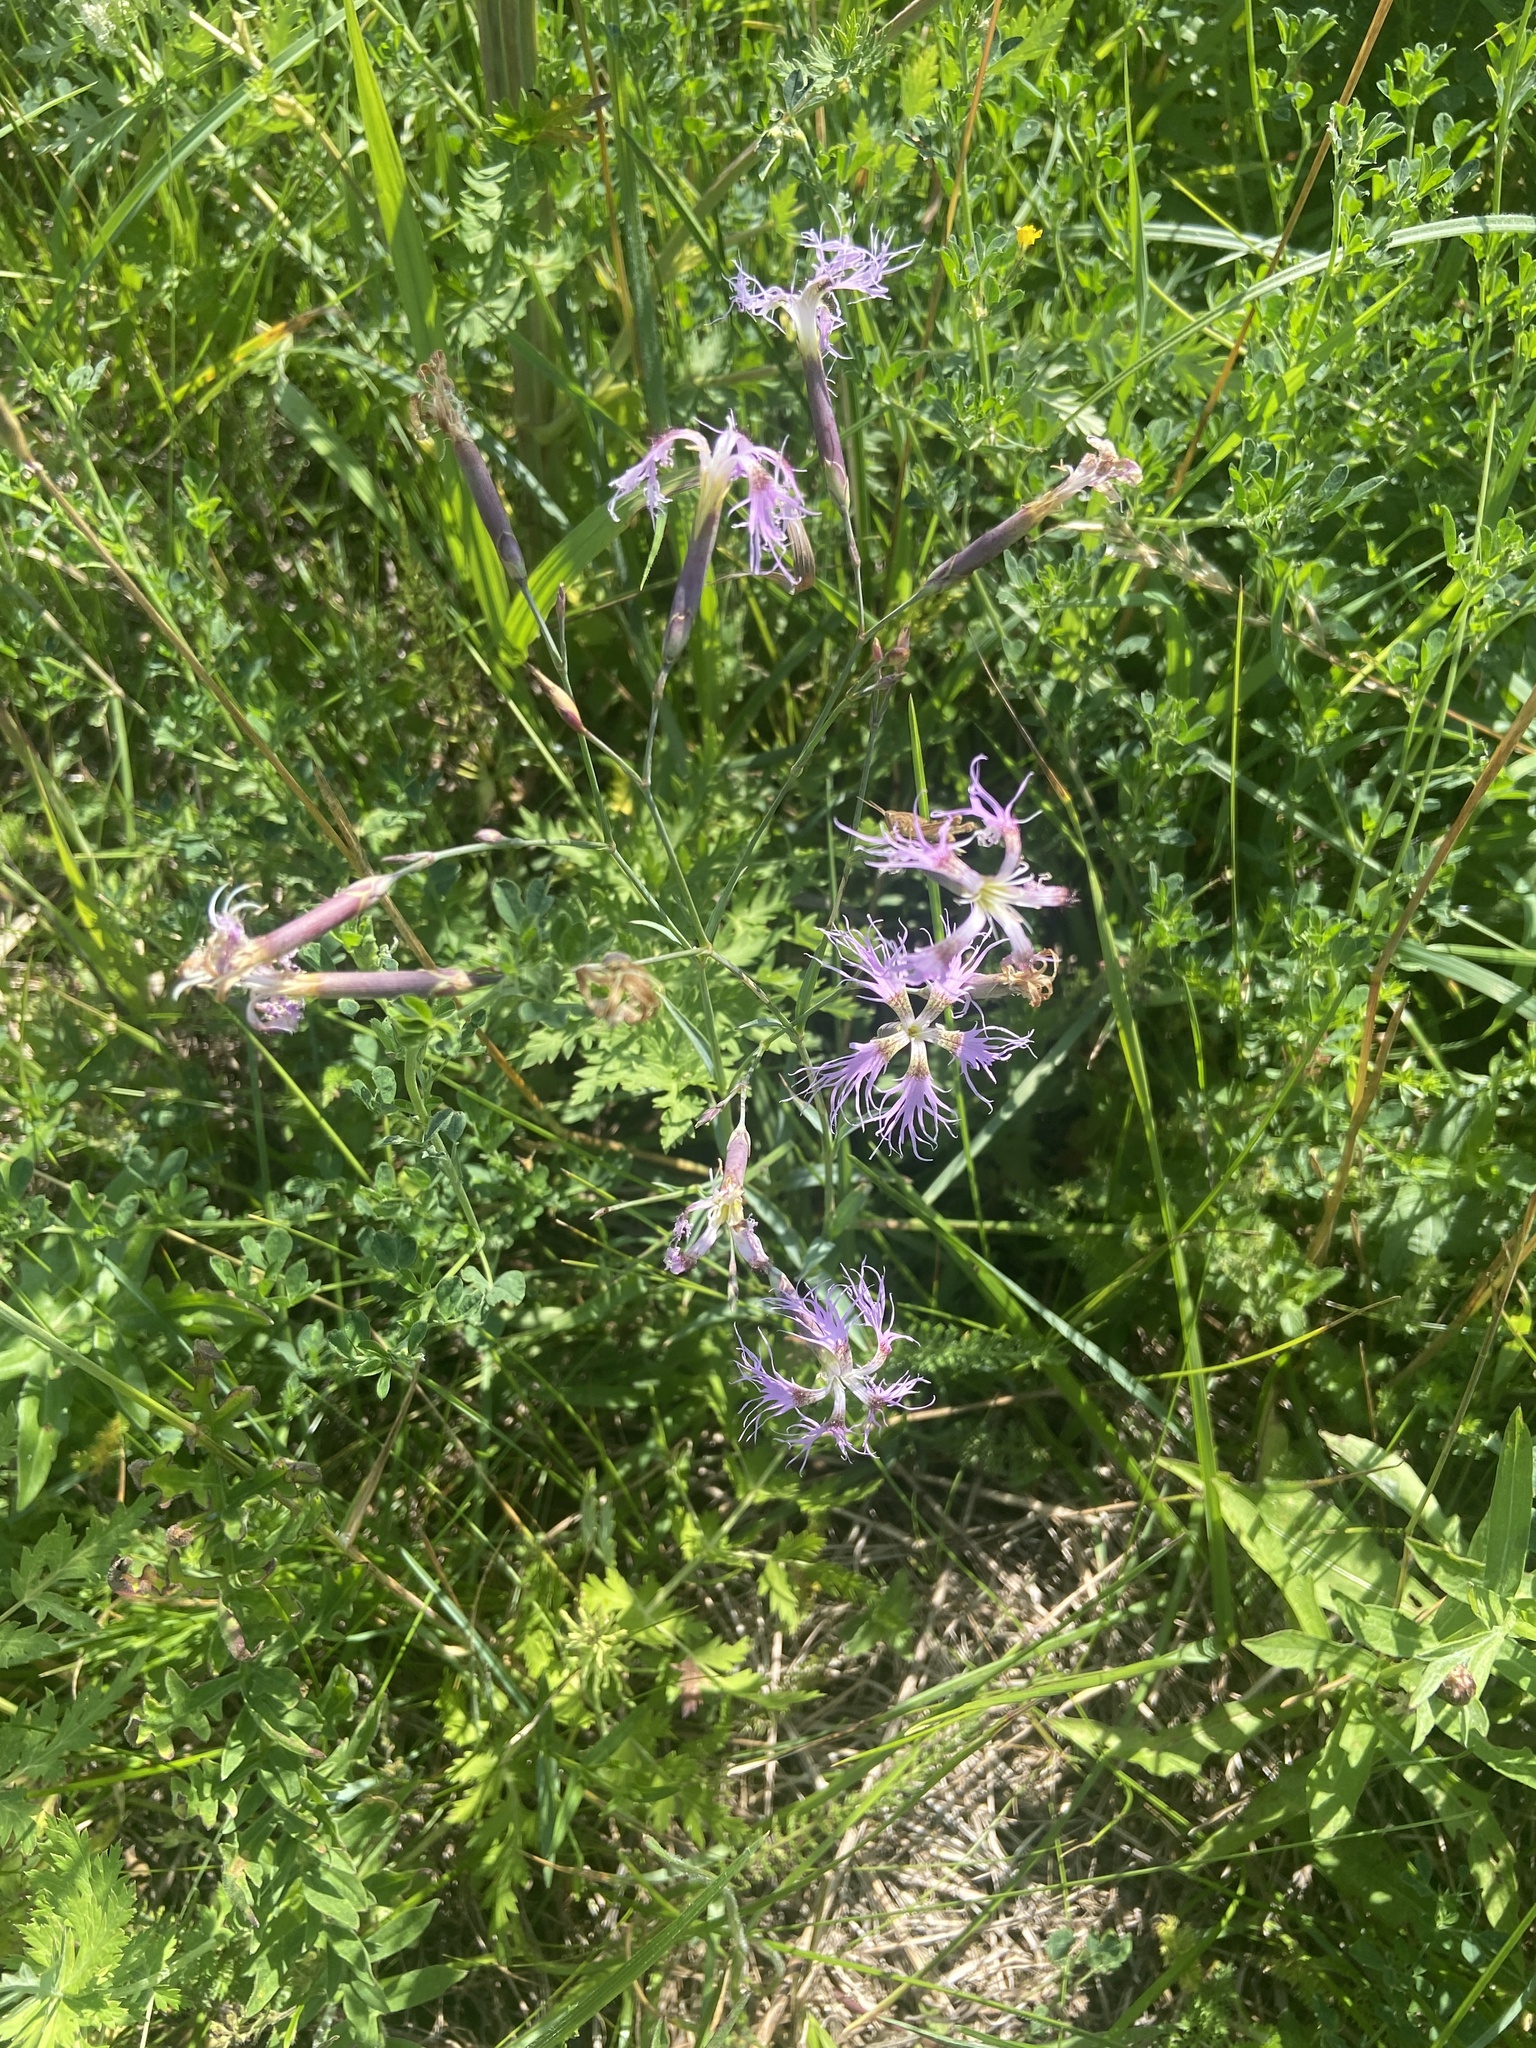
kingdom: Plantae
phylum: Tracheophyta
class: Magnoliopsida
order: Caryophyllales
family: Caryophyllaceae
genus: Dianthus
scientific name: Dianthus superbus
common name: Fringed pink
